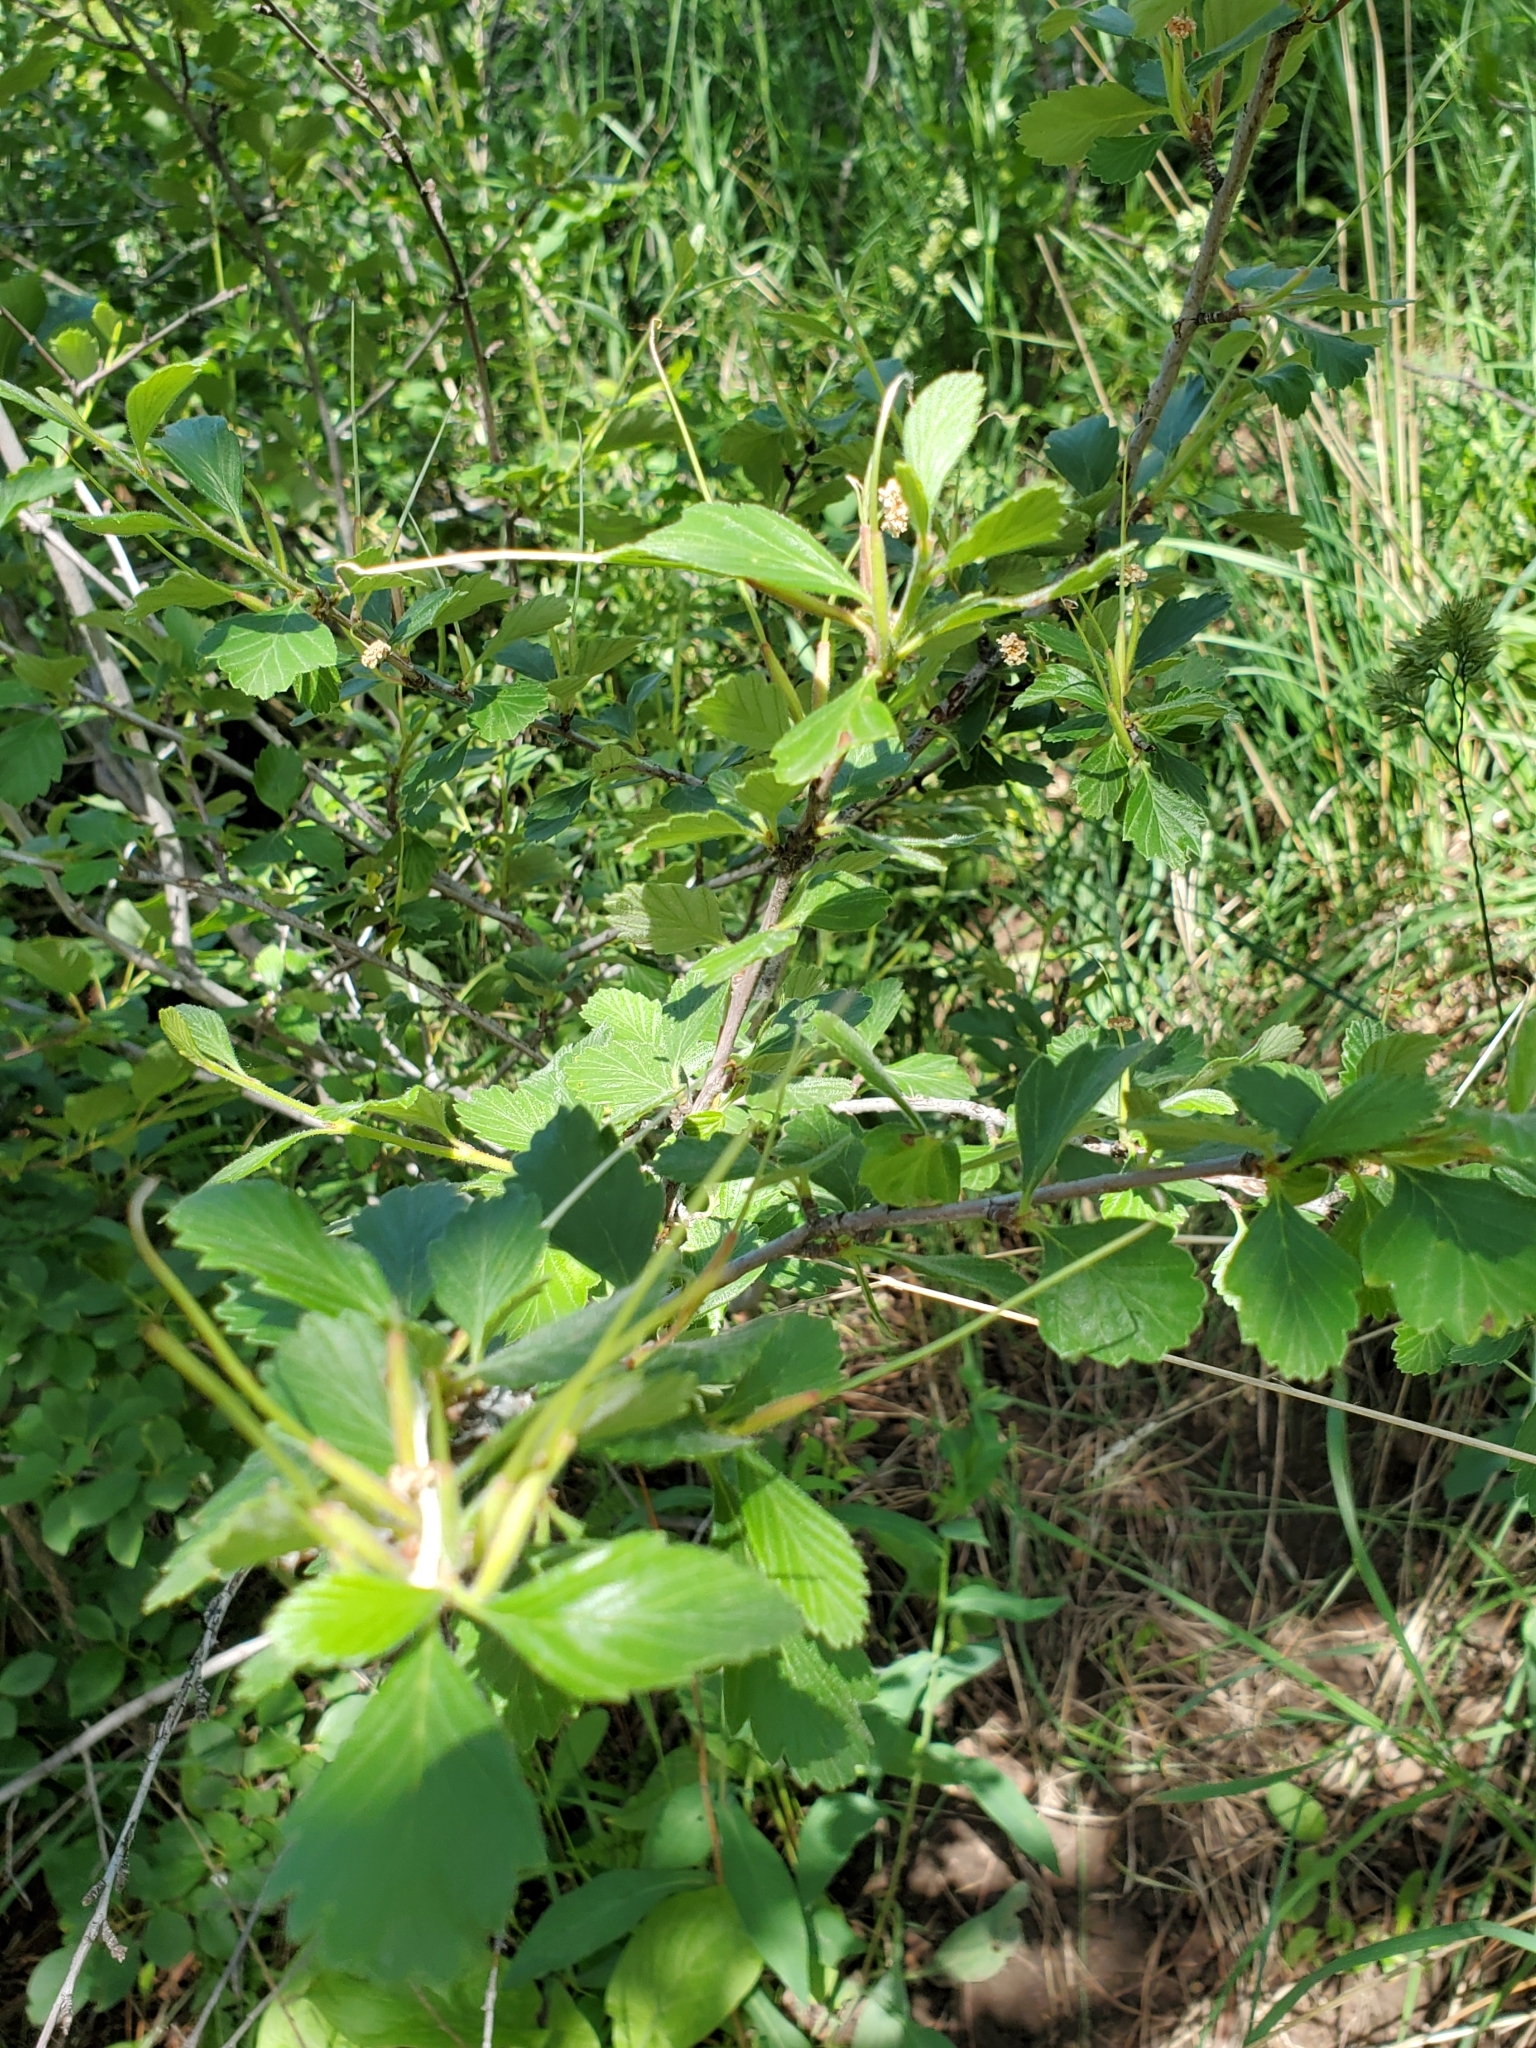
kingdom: Plantae
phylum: Tracheophyta
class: Magnoliopsida
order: Rosales
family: Rosaceae
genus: Cercocarpus
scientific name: Cercocarpus montanus
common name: Alder-leaf cercocarpus
